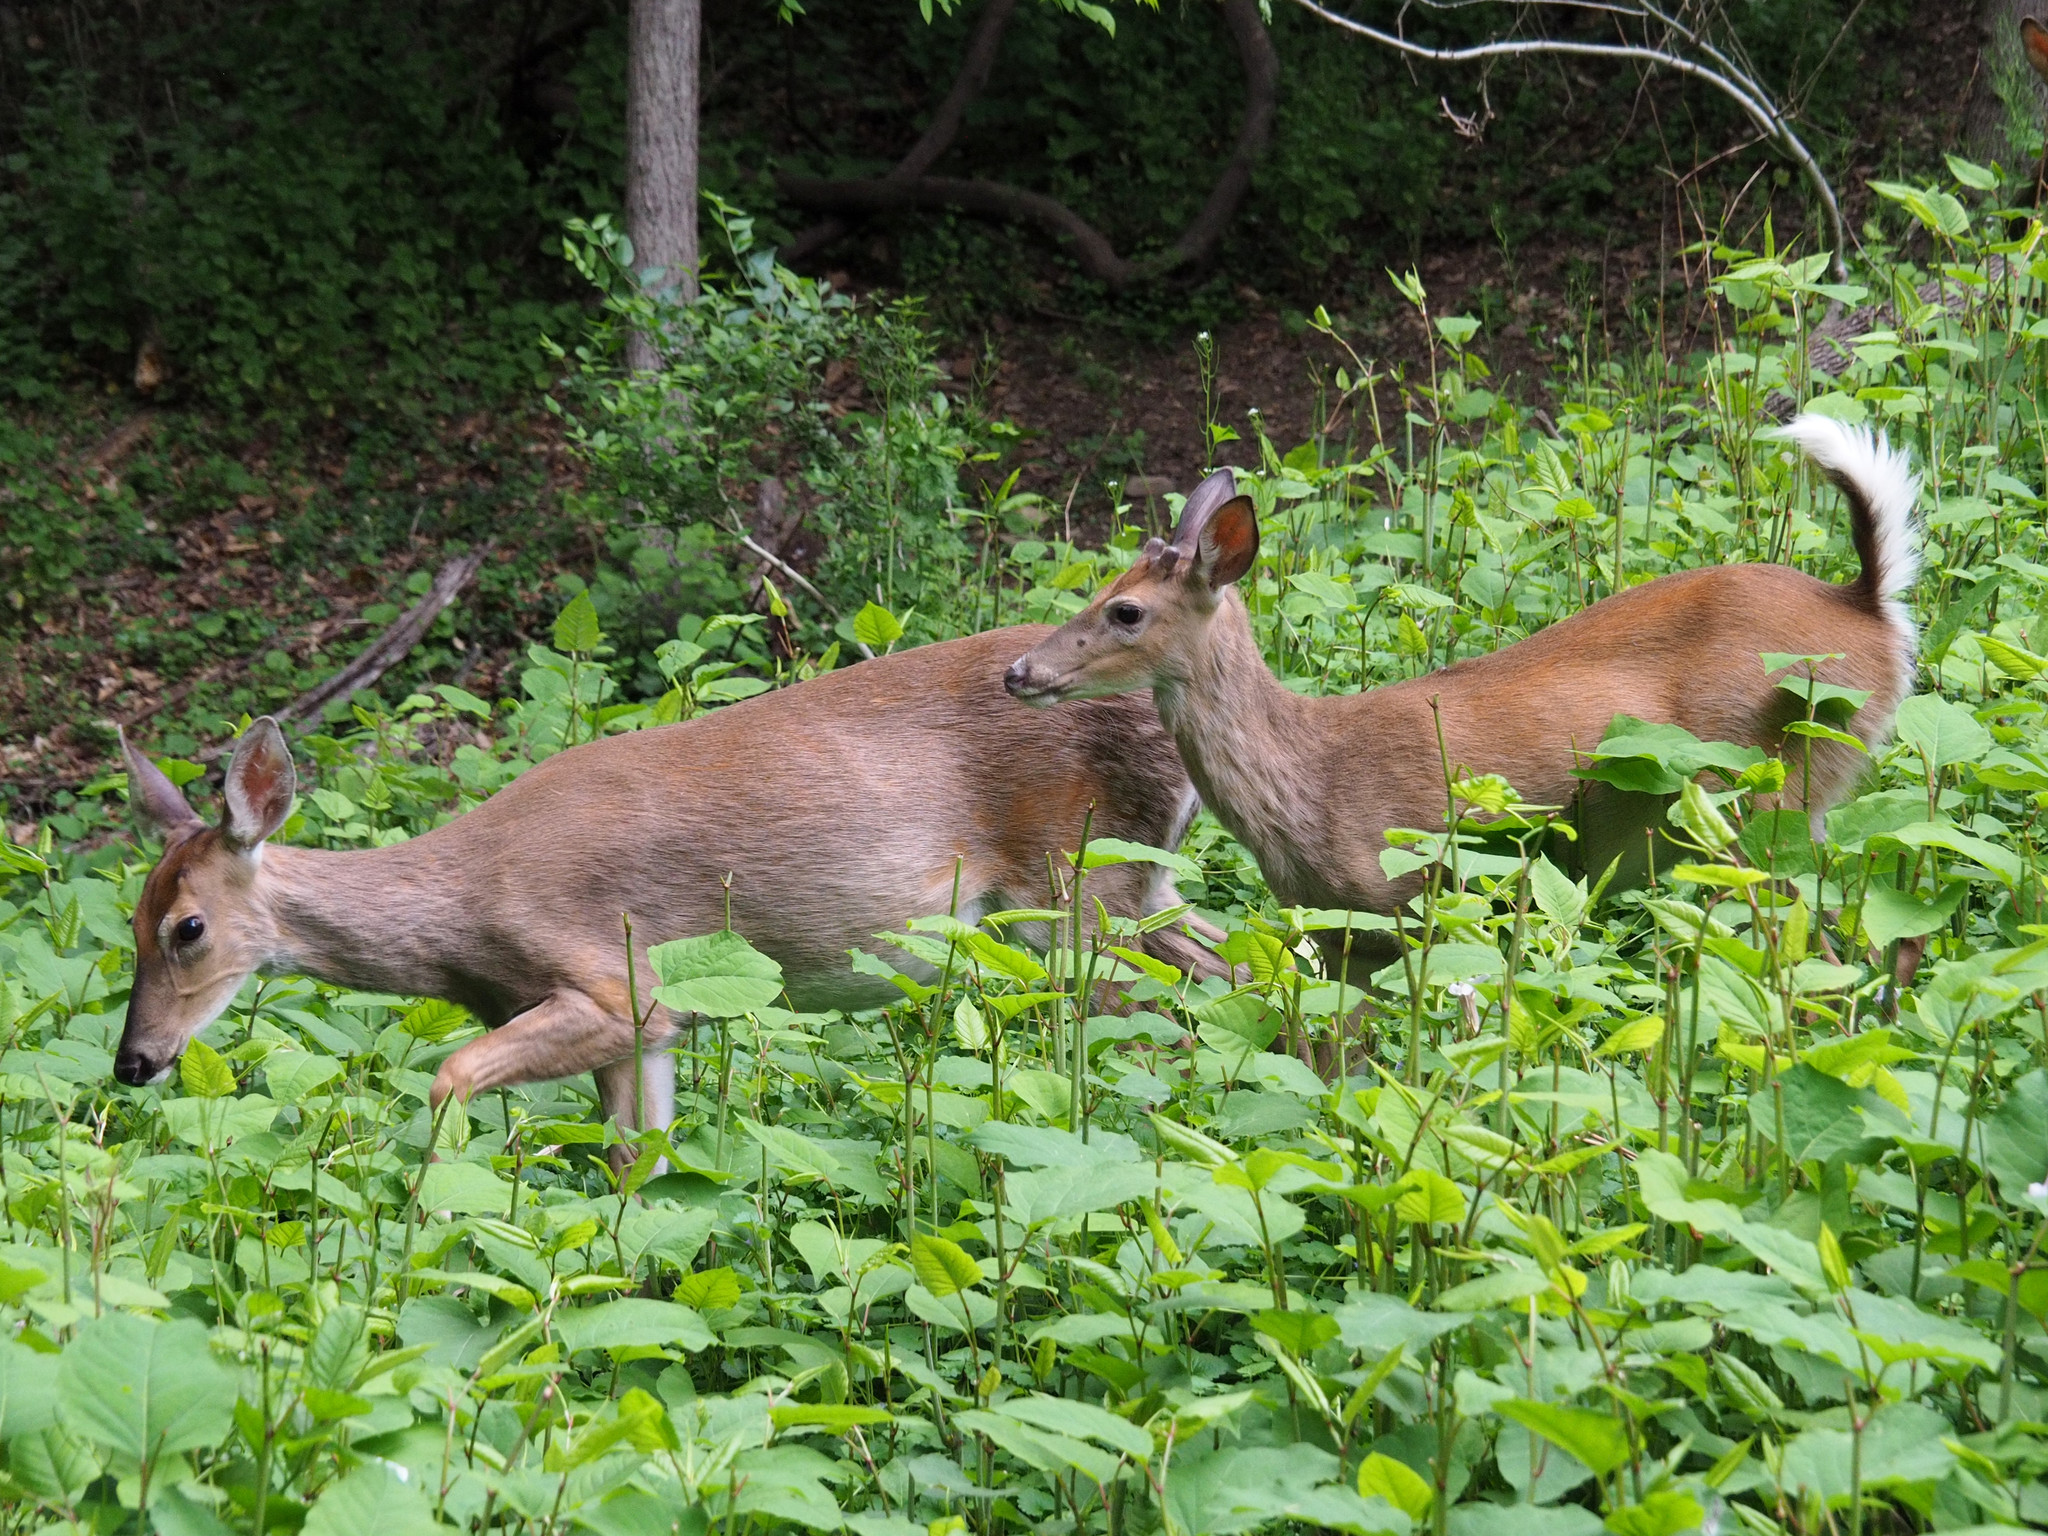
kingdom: Animalia
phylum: Chordata
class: Mammalia
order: Artiodactyla
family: Cervidae
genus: Odocoileus
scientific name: Odocoileus virginianus
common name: White-tailed deer
